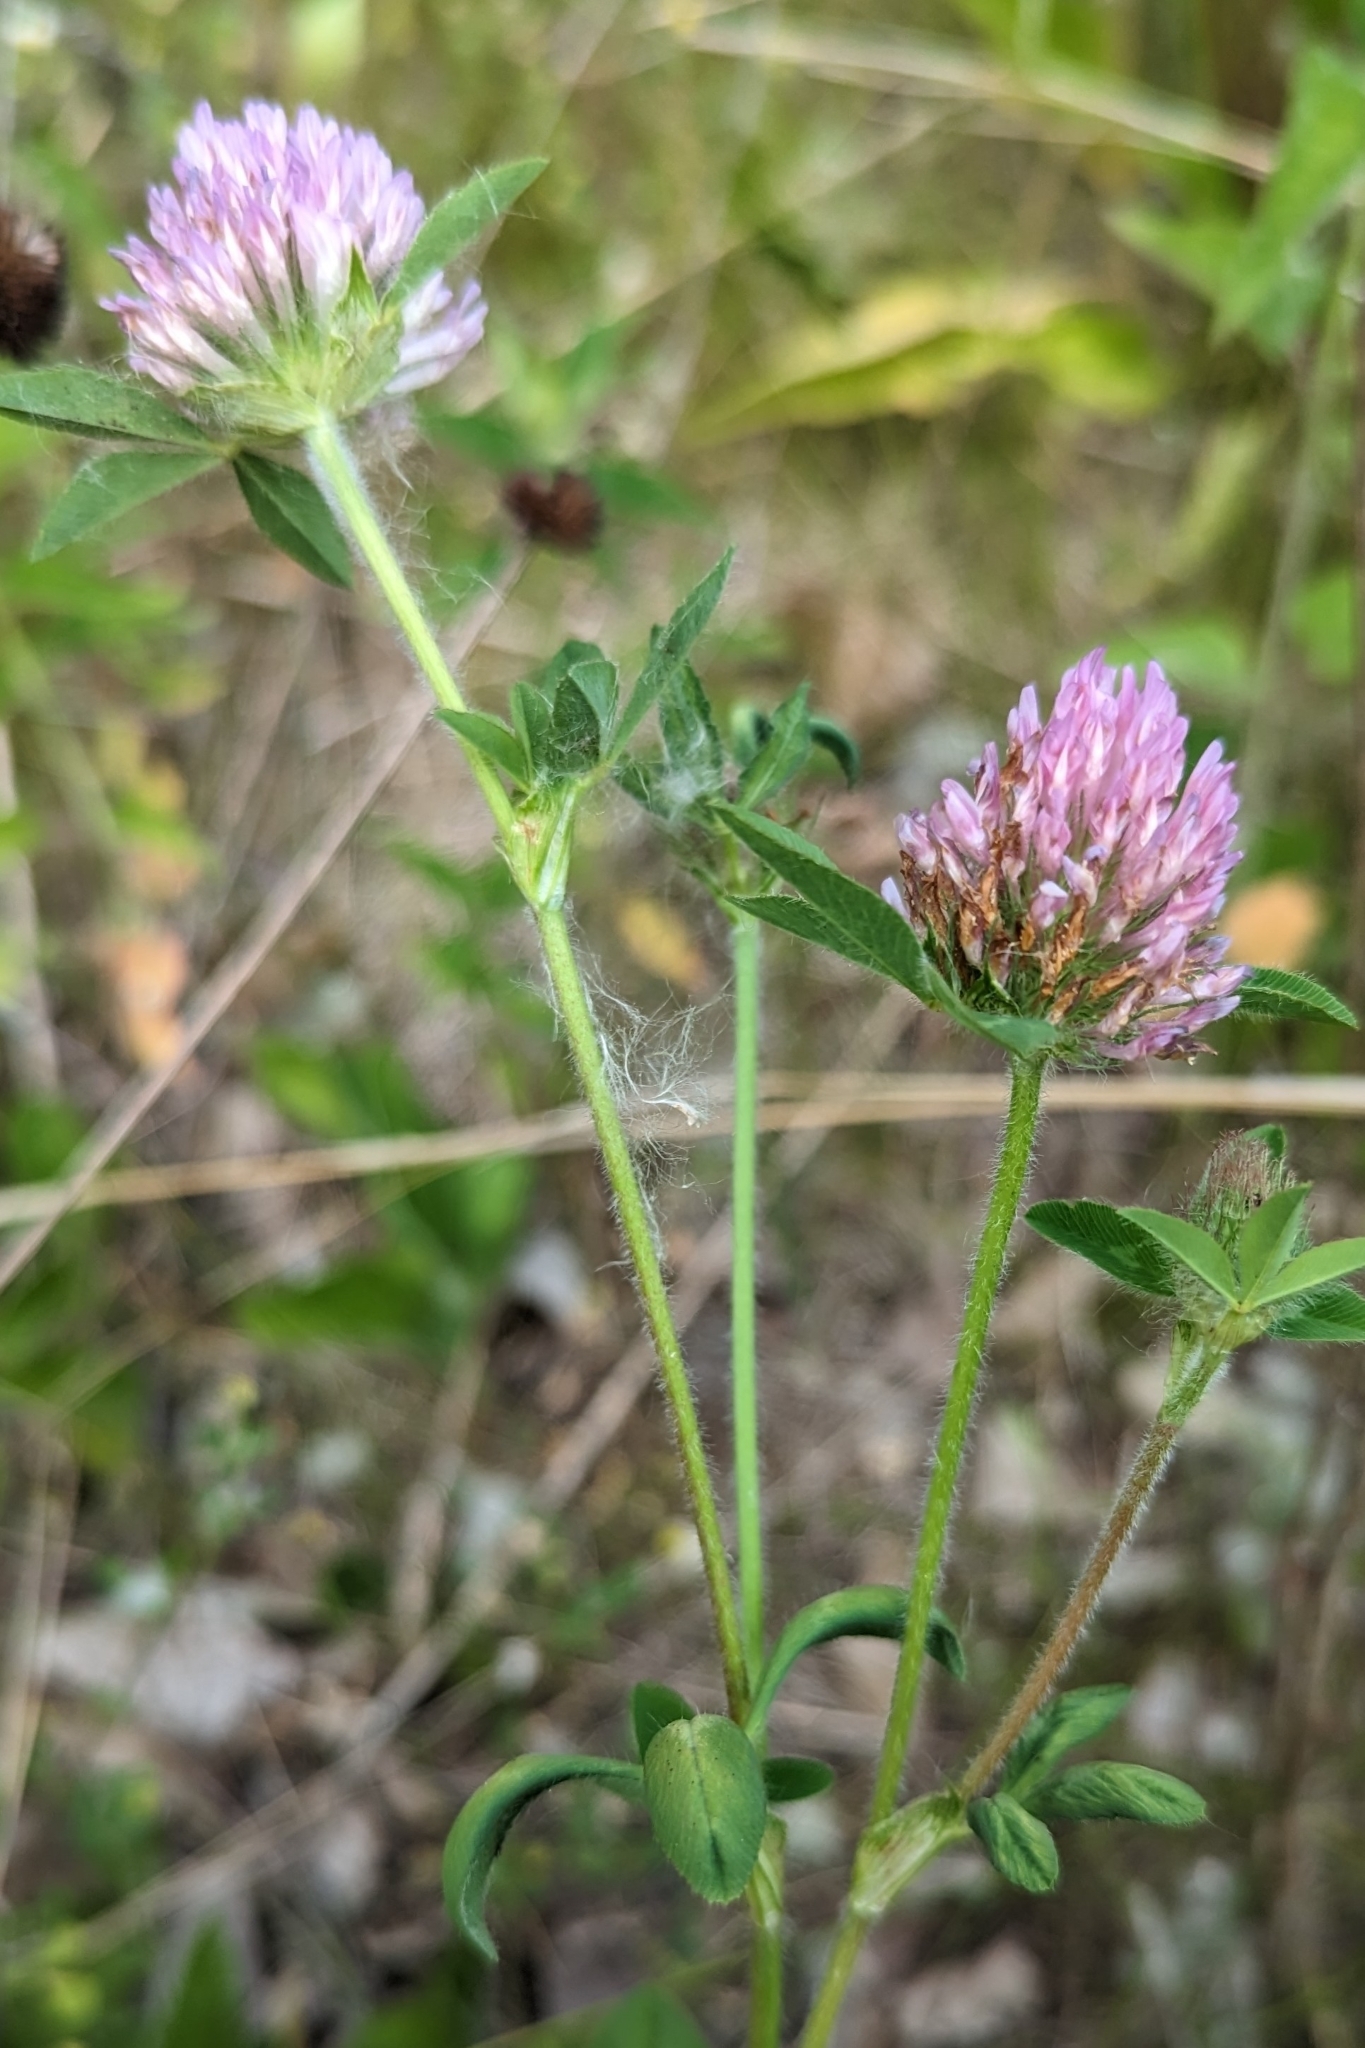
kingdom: Plantae
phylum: Tracheophyta
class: Magnoliopsida
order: Fabales
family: Fabaceae
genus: Trifolium
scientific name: Trifolium pratense
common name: Red clover
